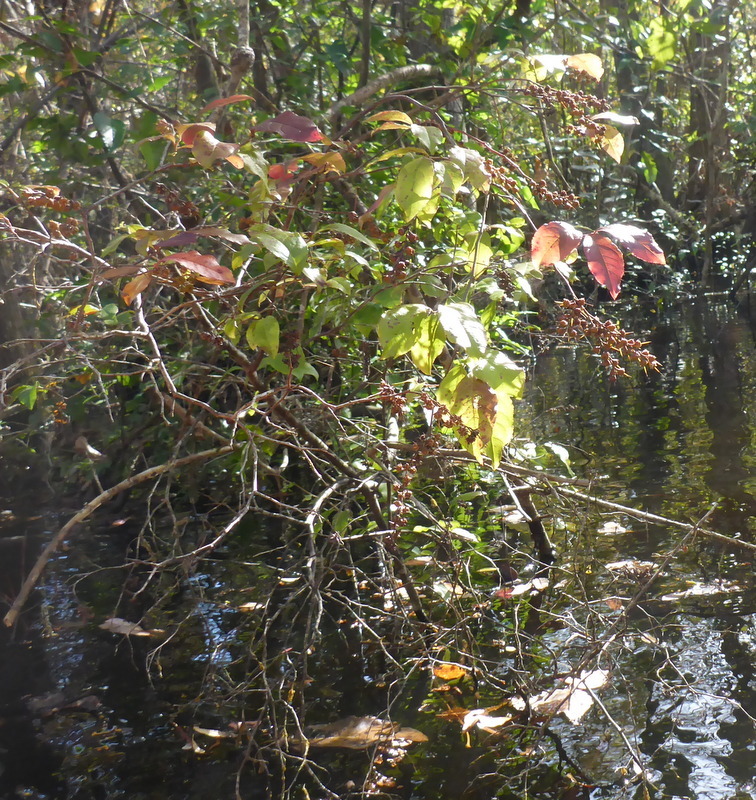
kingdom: Plantae
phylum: Tracheophyta
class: Magnoliopsida
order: Ericales
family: Ericaceae
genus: Eubotrys
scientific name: Eubotrys racemosa
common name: Fetterbush
